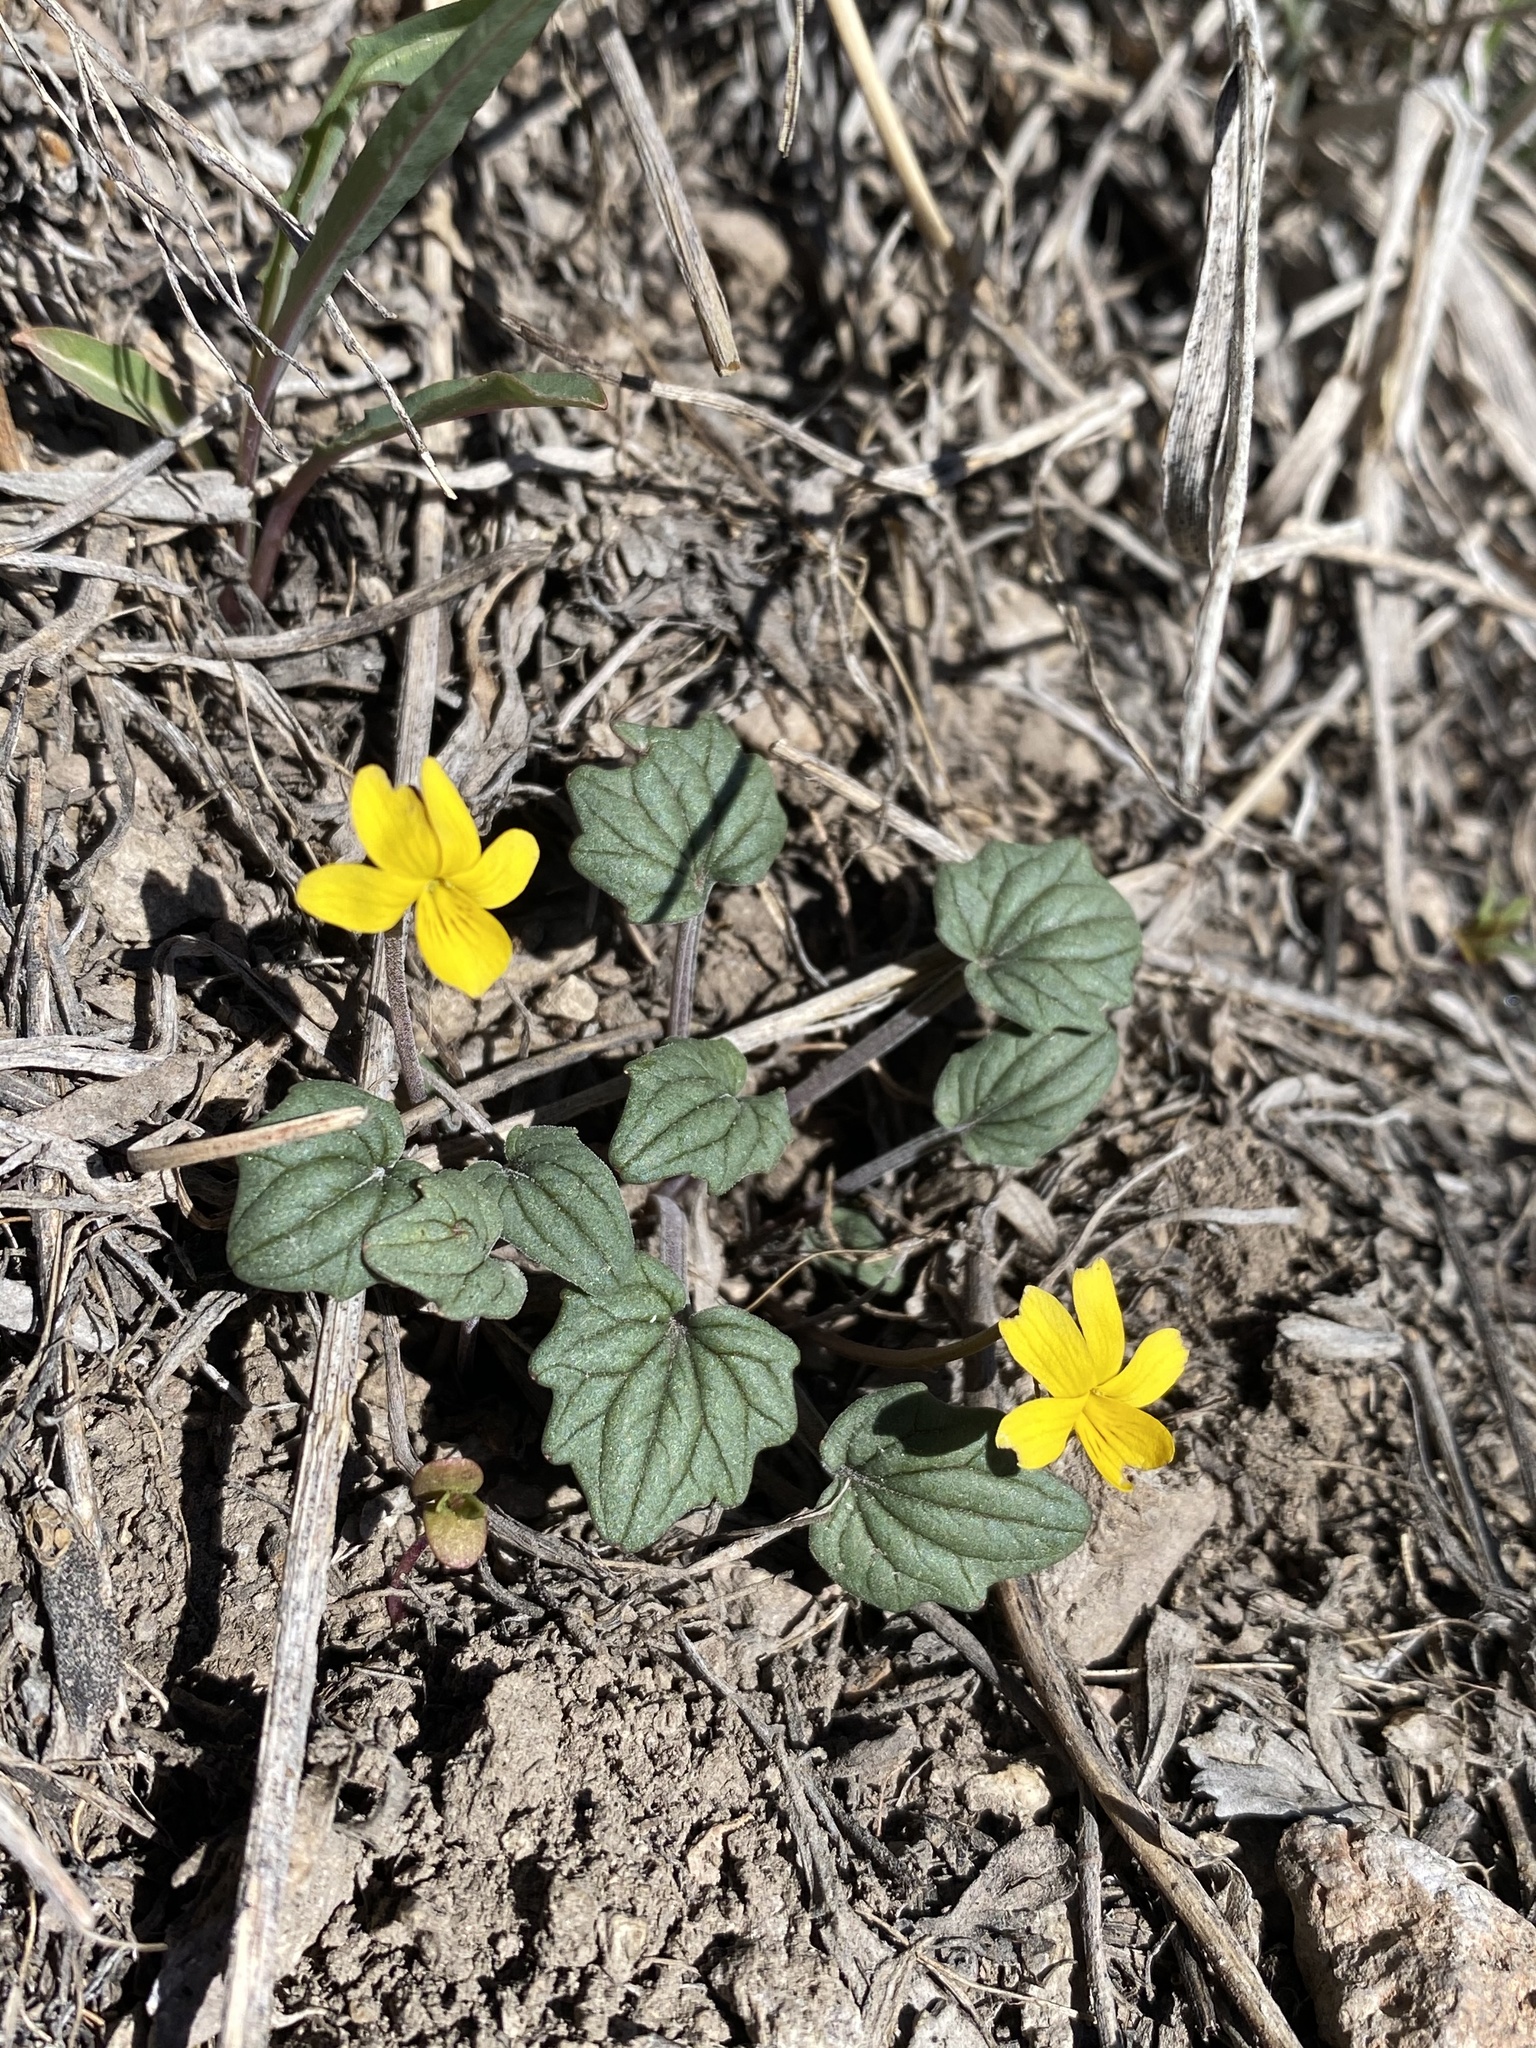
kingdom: Plantae
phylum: Tracheophyta
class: Magnoliopsida
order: Malpighiales
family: Violaceae
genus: Viola
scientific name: Viola purpurea
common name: Pine violet
